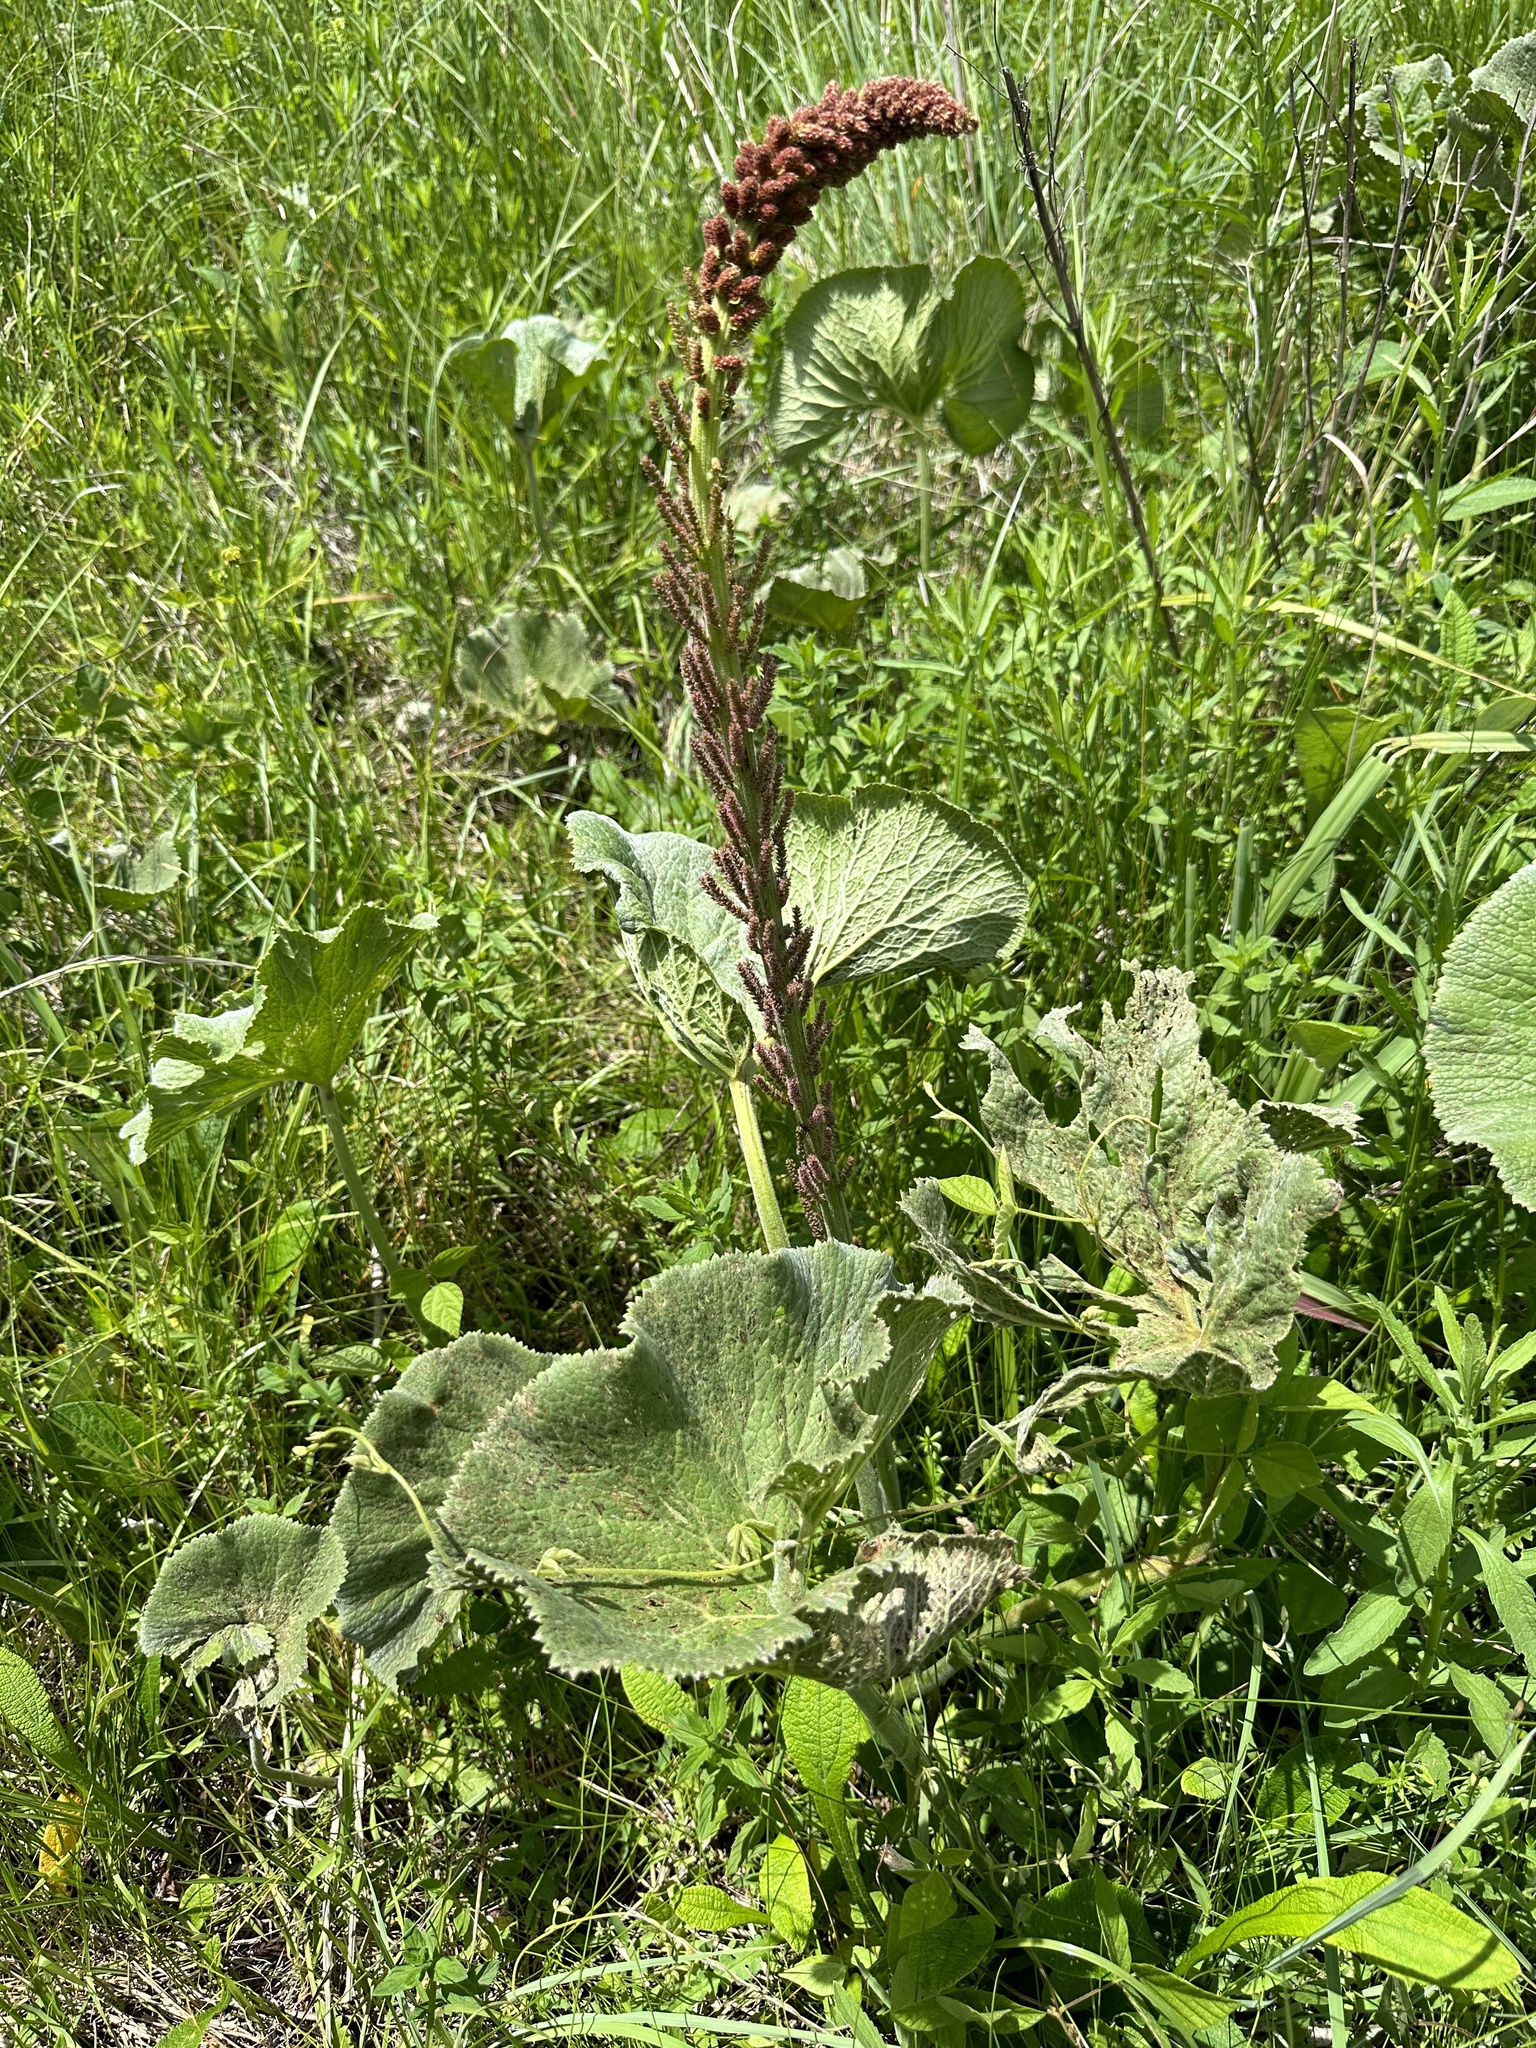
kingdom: Plantae
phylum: Tracheophyta
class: Magnoliopsida
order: Gunnerales
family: Gunneraceae
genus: Gunnera
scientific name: Gunnera perpensa
